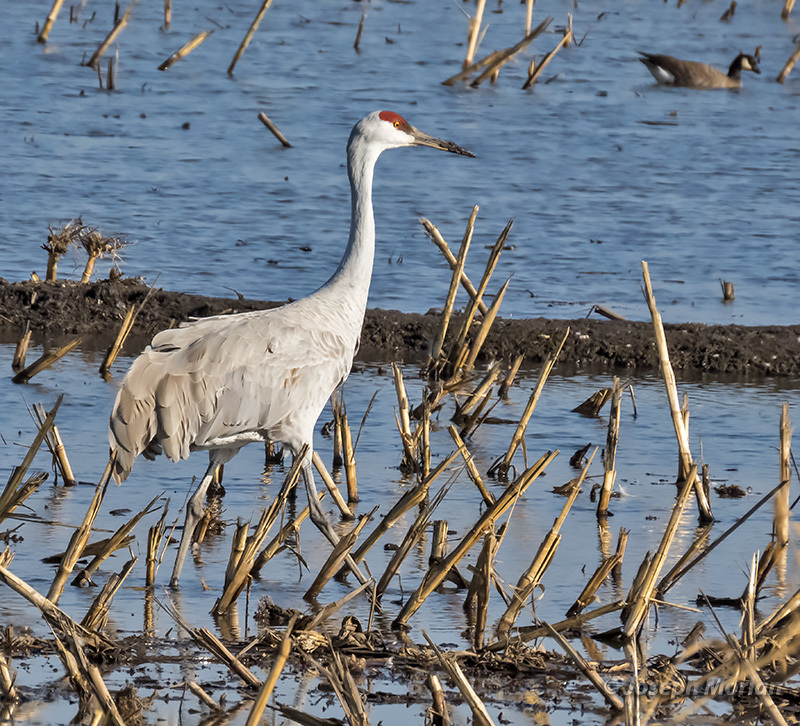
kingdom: Animalia
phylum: Chordata
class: Aves
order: Gruiformes
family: Gruidae
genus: Grus
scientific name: Grus canadensis
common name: Sandhill crane
